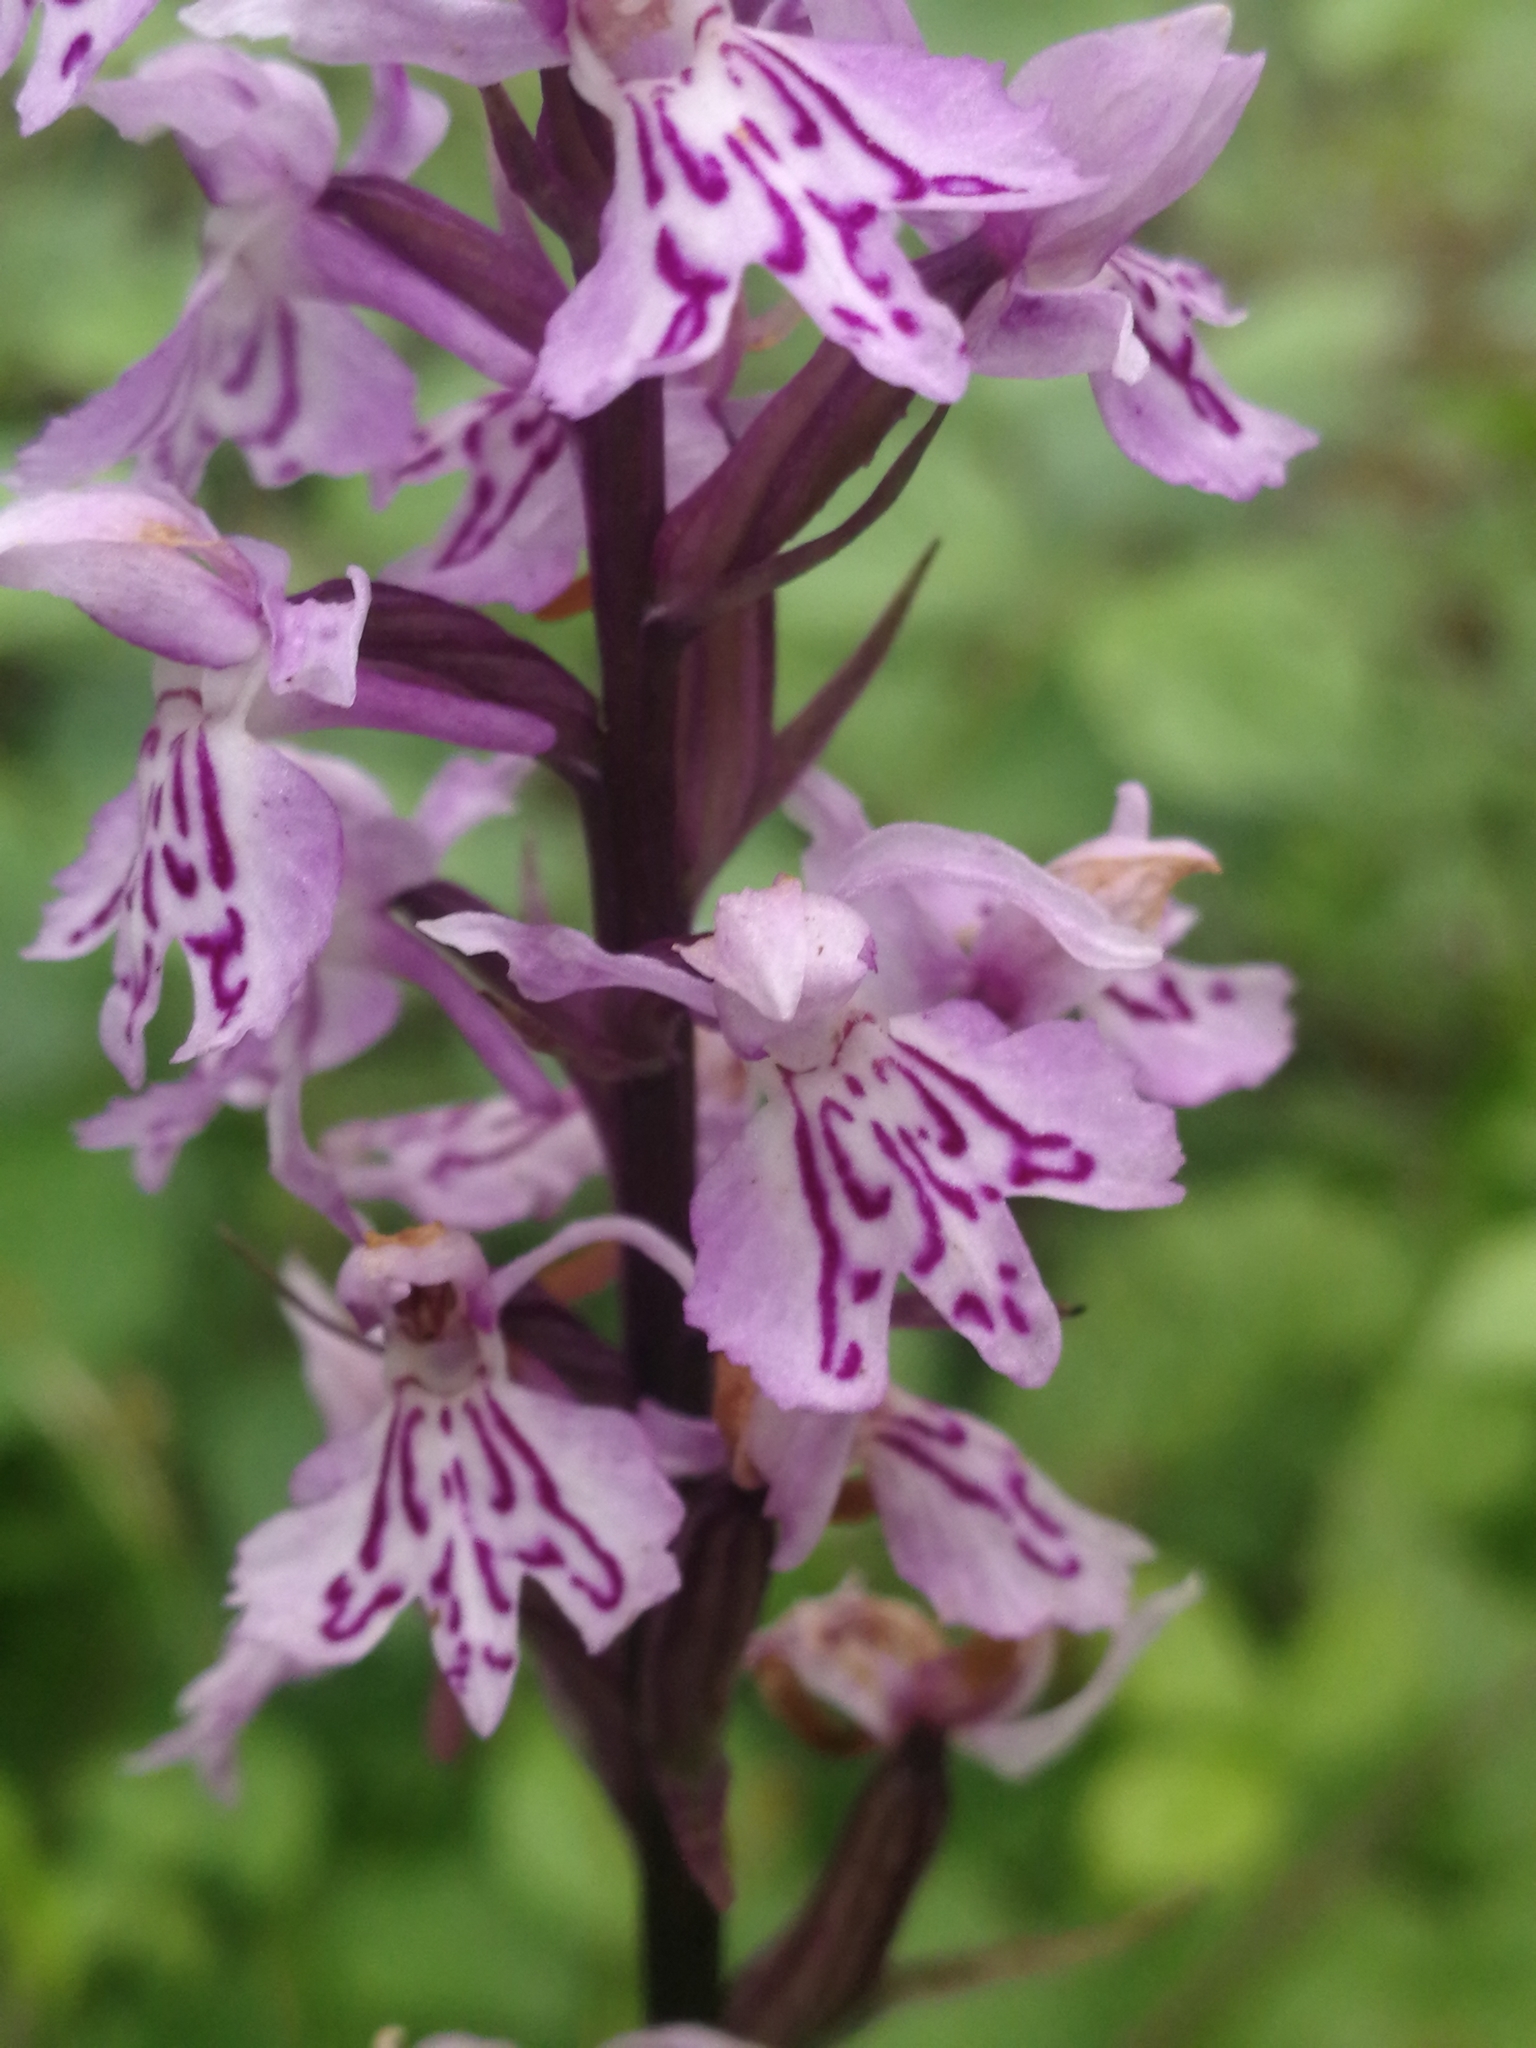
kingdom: Plantae
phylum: Tracheophyta
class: Liliopsida
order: Asparagales
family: Orchidaceae
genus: Dactylorhiza
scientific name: Dactylorhiza maculata
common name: Heath spotted-orchid
